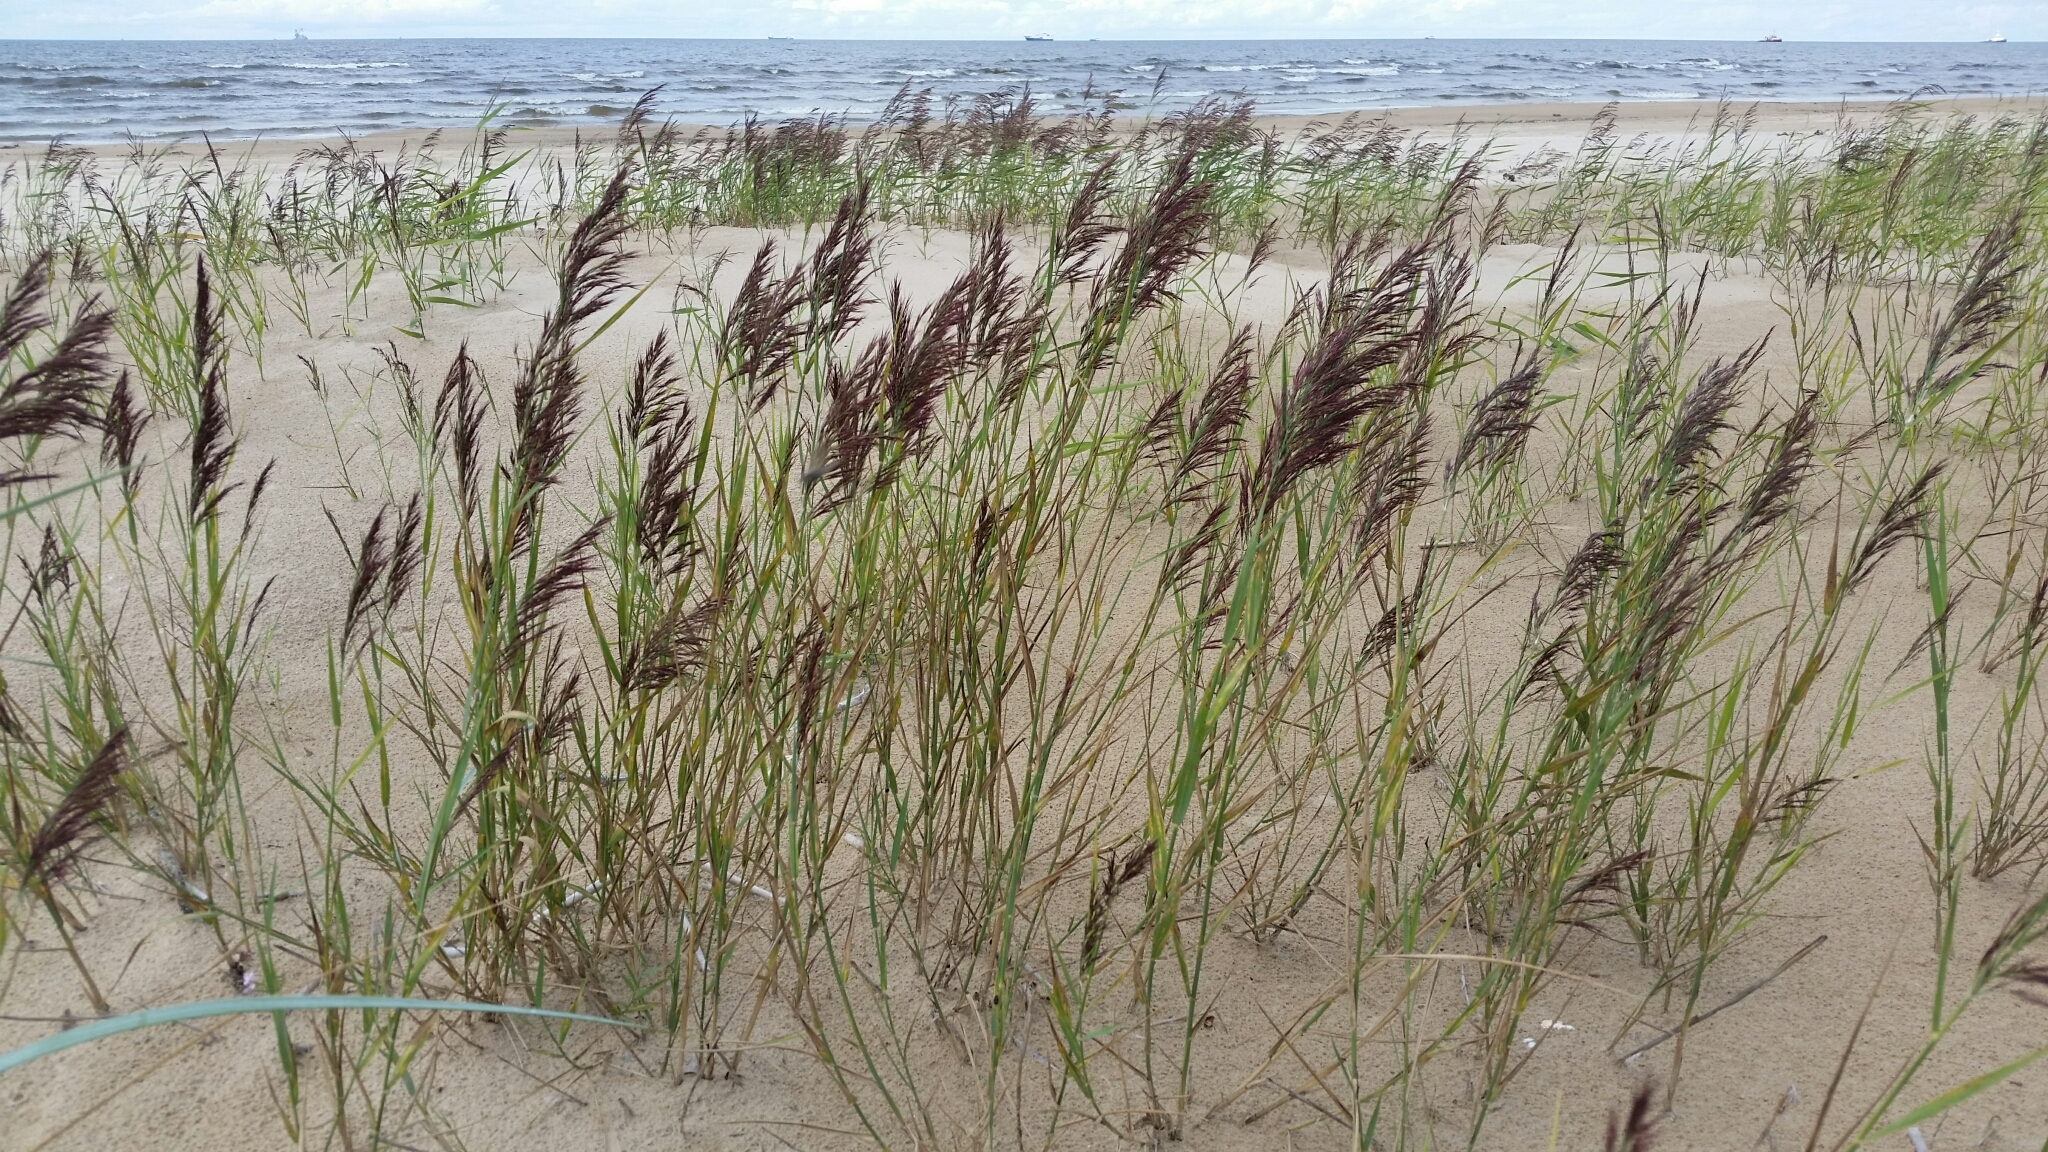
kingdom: Plantae
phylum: Tracheophyta
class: Liliopsida
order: Poales
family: Poaceae
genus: Phragmites
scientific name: Phragmites australis
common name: Common reed
